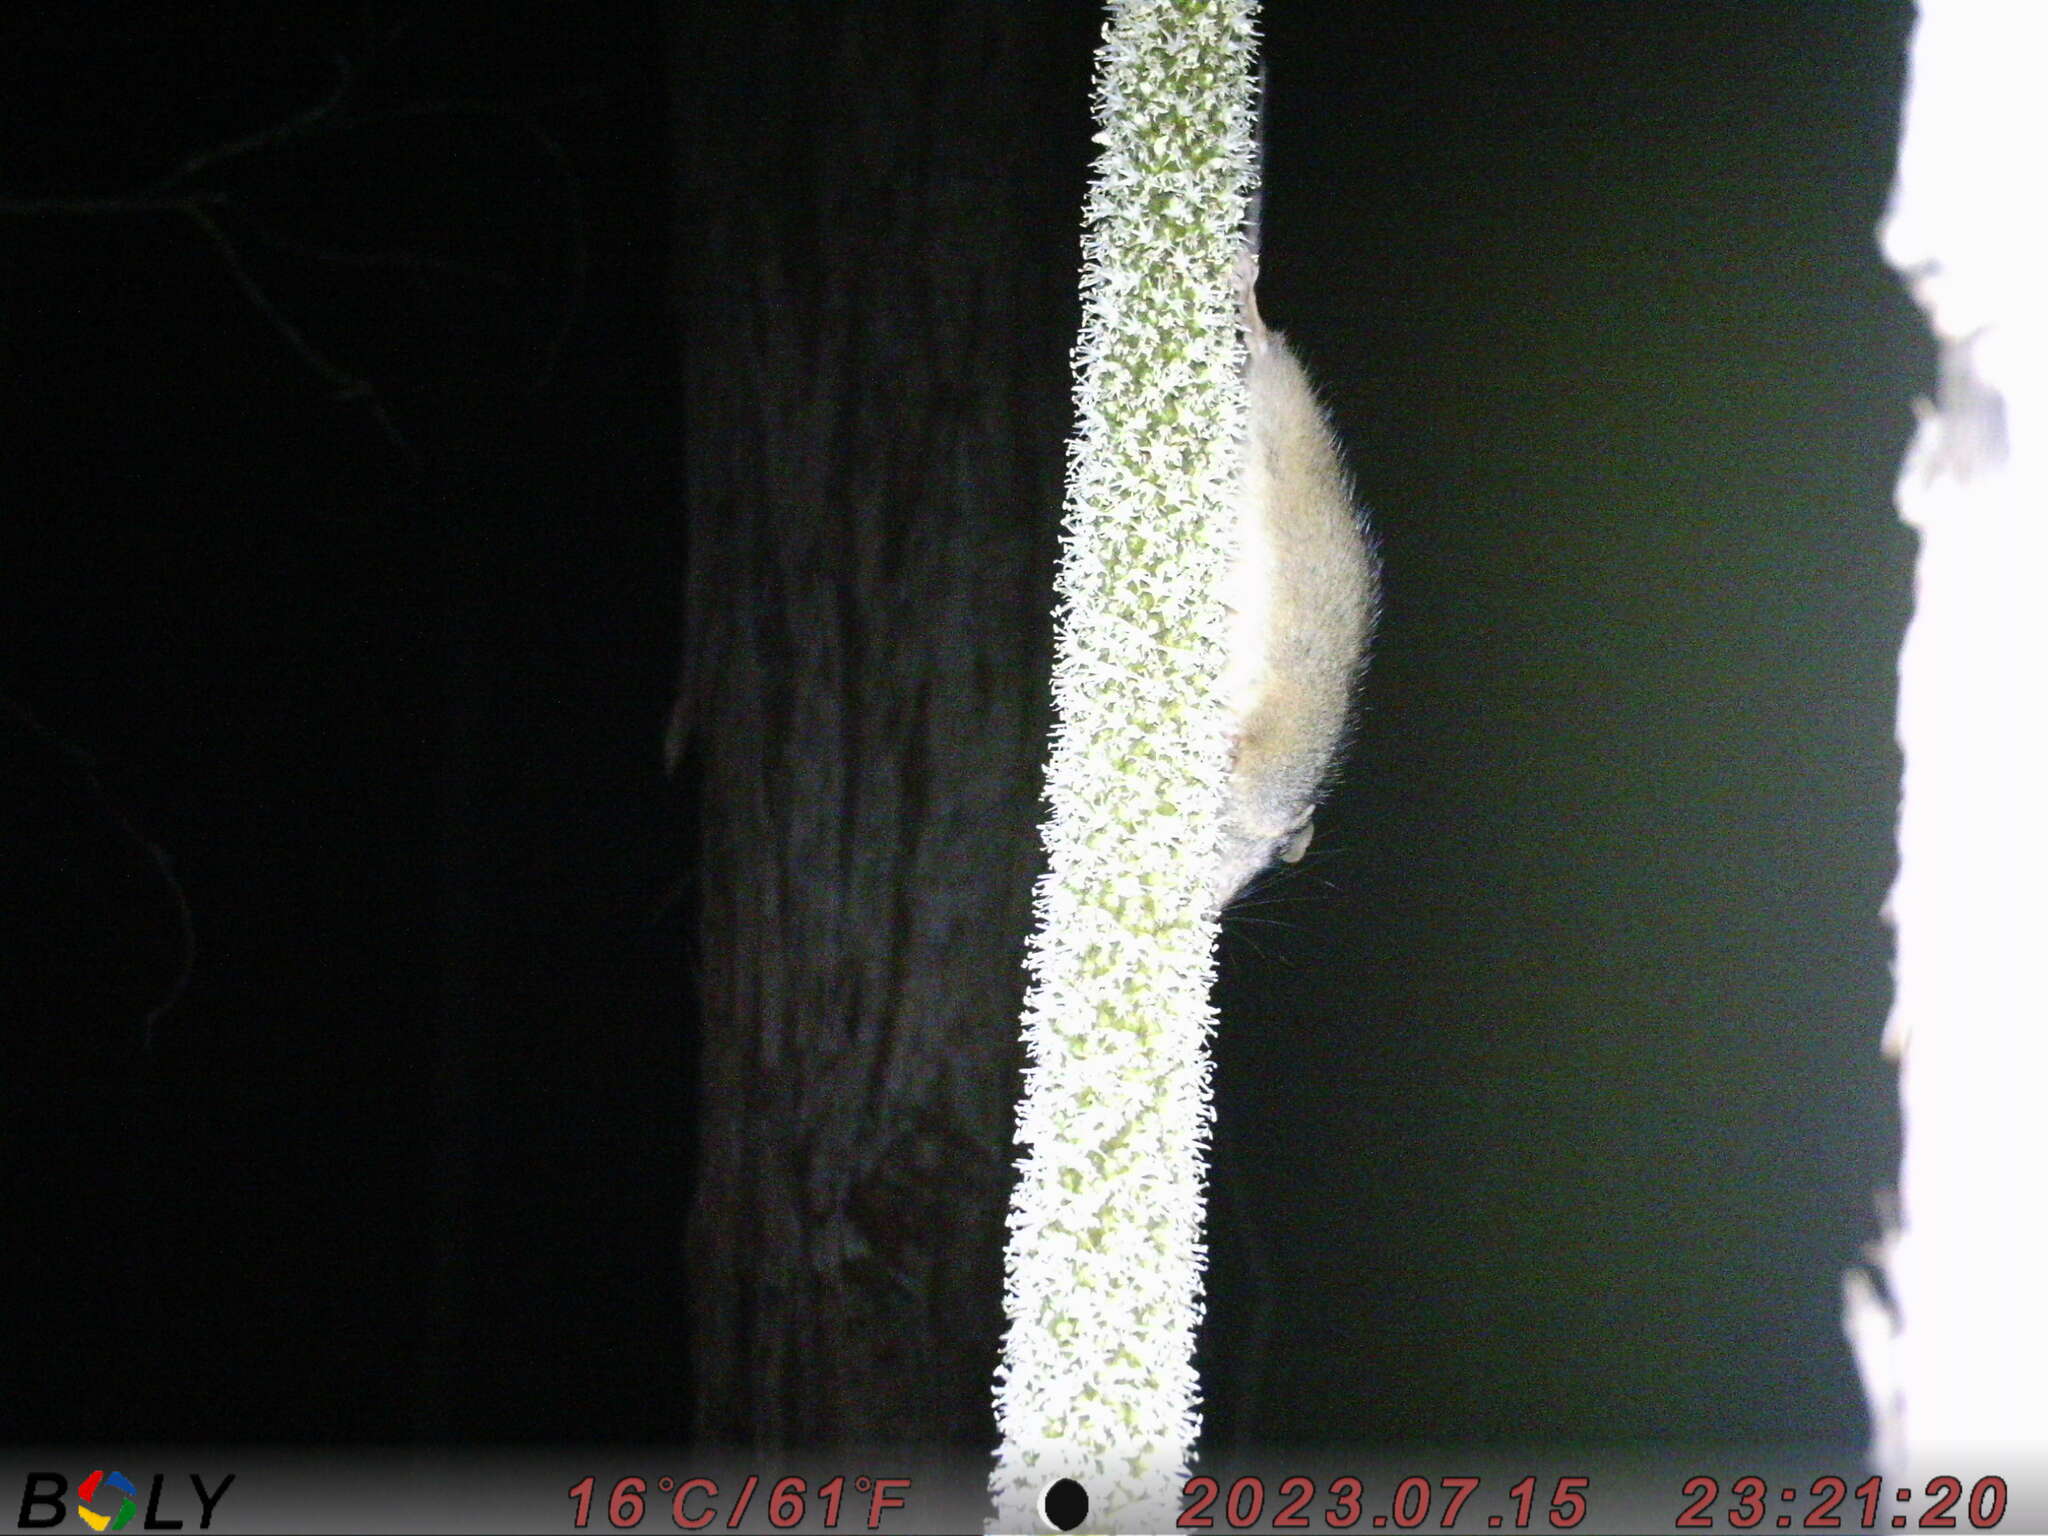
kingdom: Animalia
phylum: Chordata
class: Mammalia
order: Dasyuromorphia
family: Dasyuridae
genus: Antechinus
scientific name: Antechinus flavipes
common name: Yellow-footed antechinus
